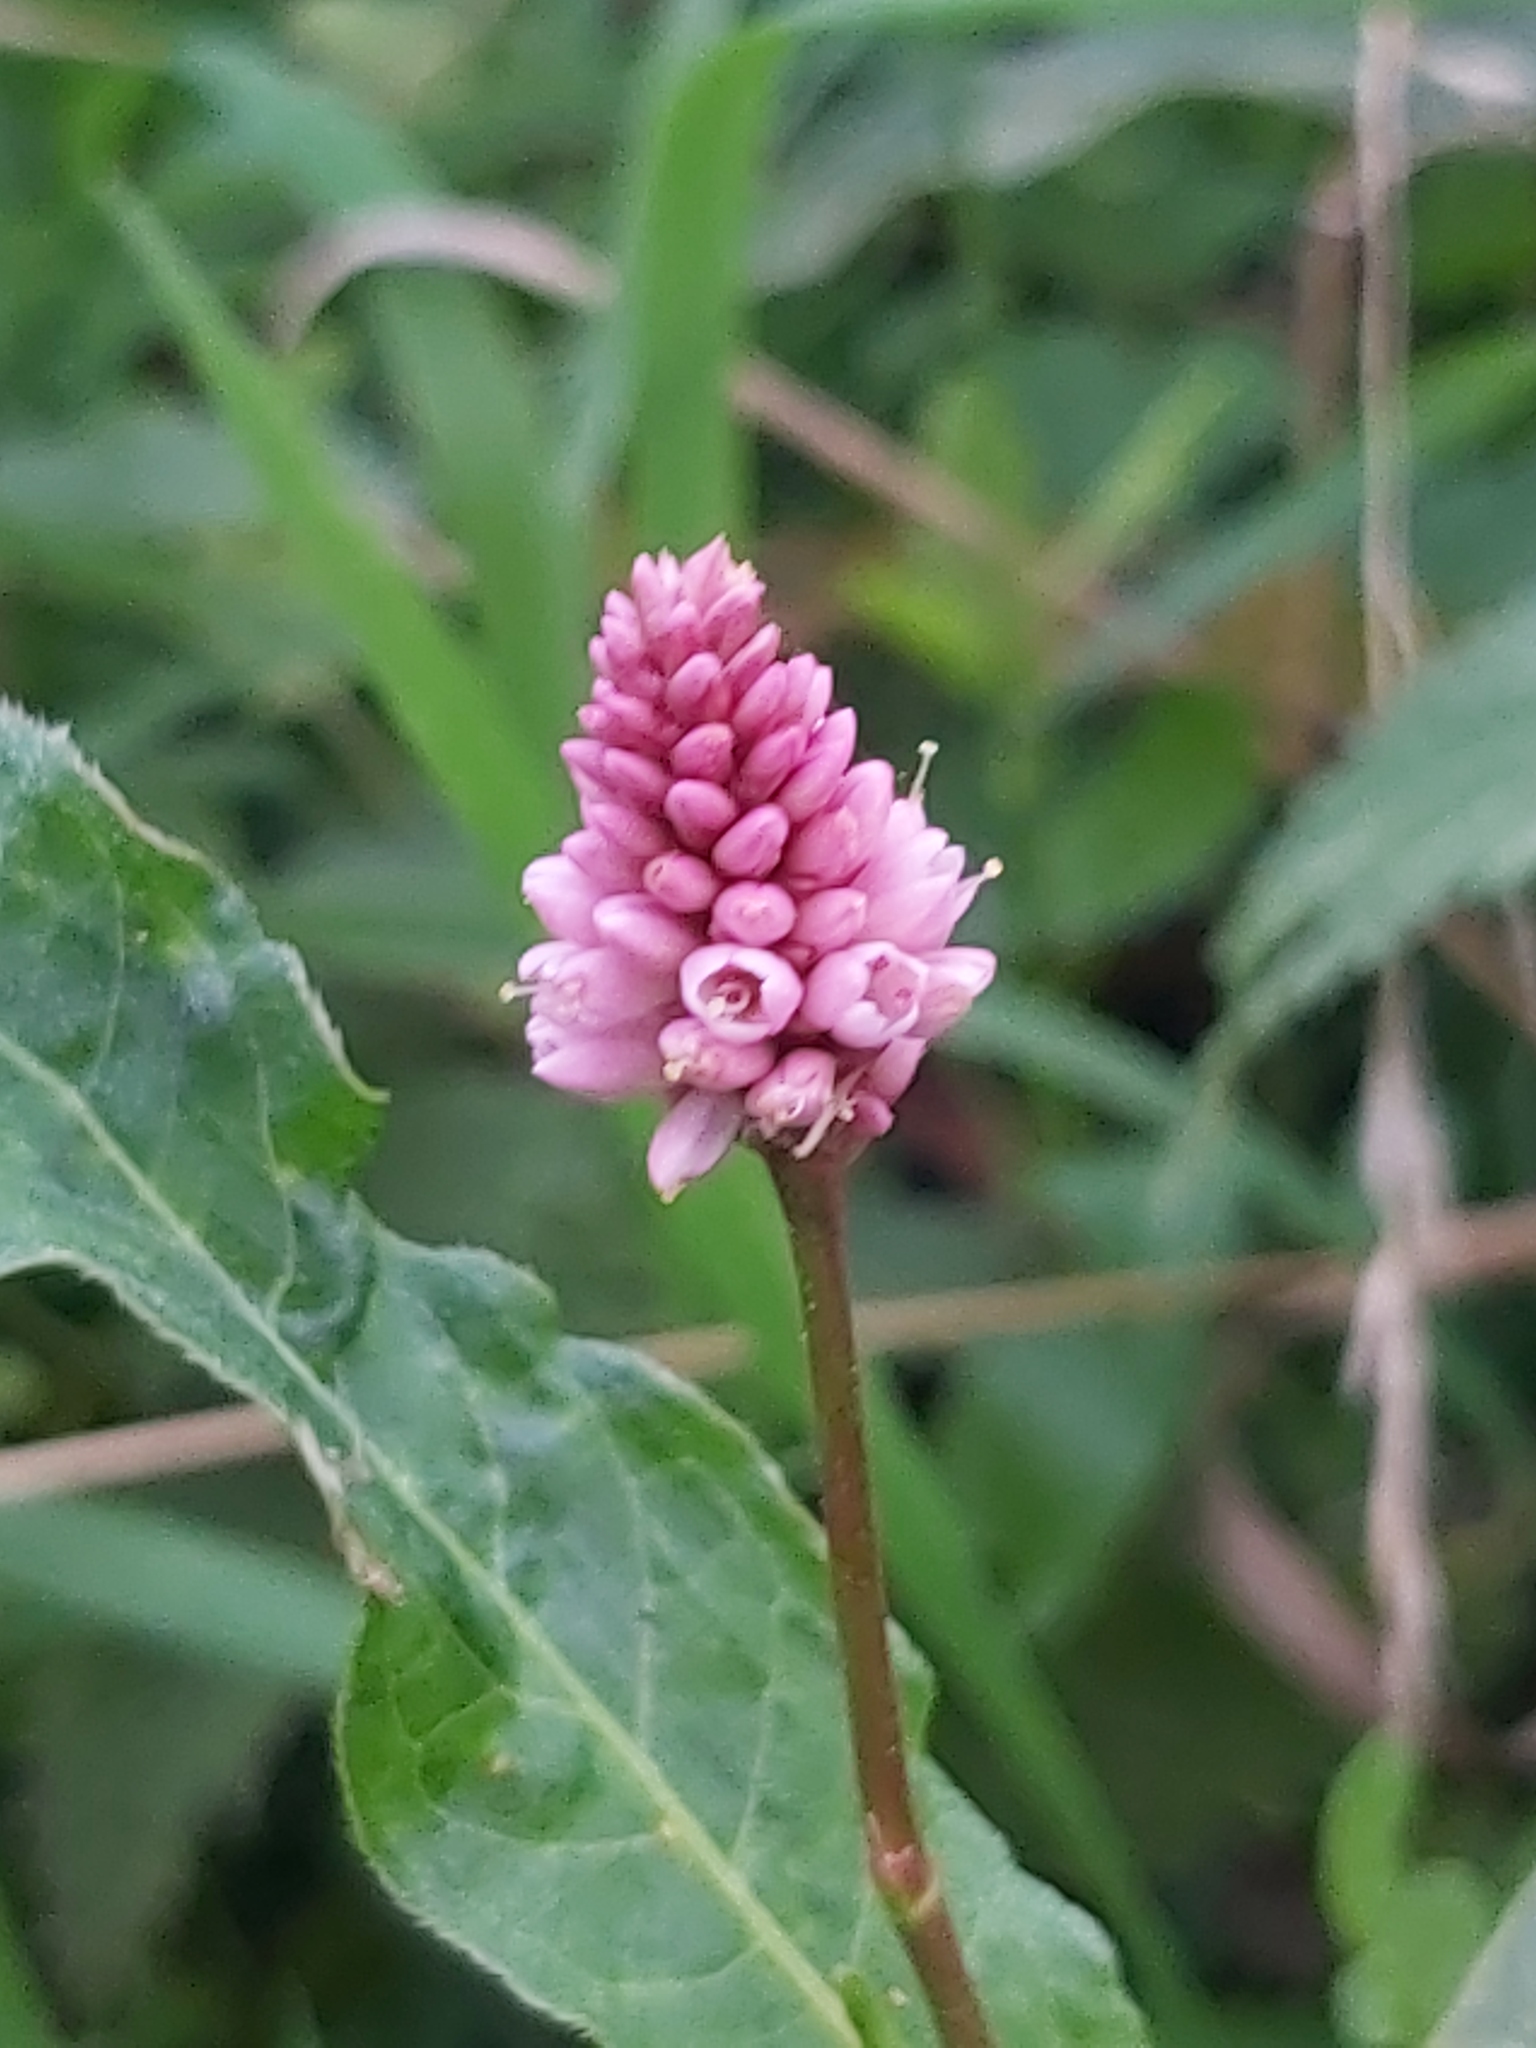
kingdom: Plantae
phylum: Tracheophyta
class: Magnoliopsida
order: Caryophyllales
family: Polygonaceae
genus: Persicaria
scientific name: Persicaria amphibia
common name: Amphibious bistort
